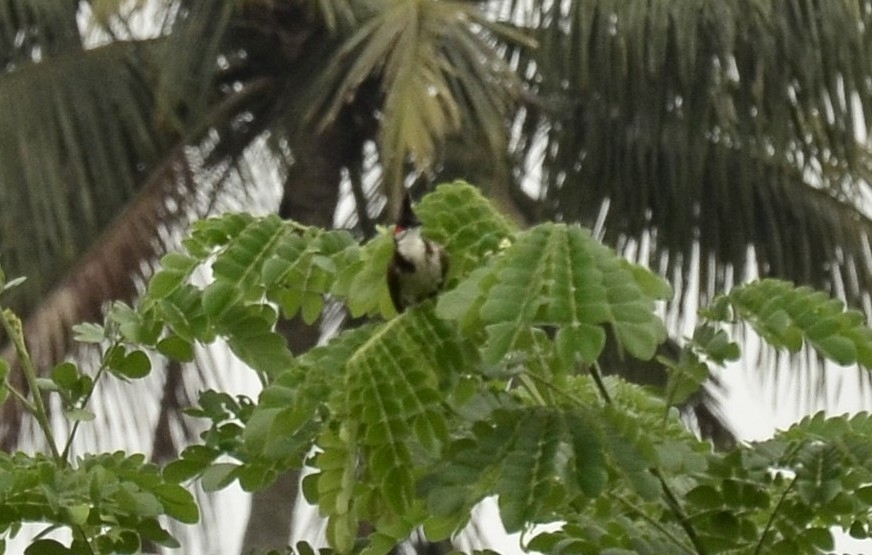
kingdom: Animalia
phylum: Chordata
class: Aves
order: Passeriformes
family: Pycnonotidae
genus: Pycnonotus
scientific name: Pycnonotus jocosus
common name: Red-whiskered bulbul
